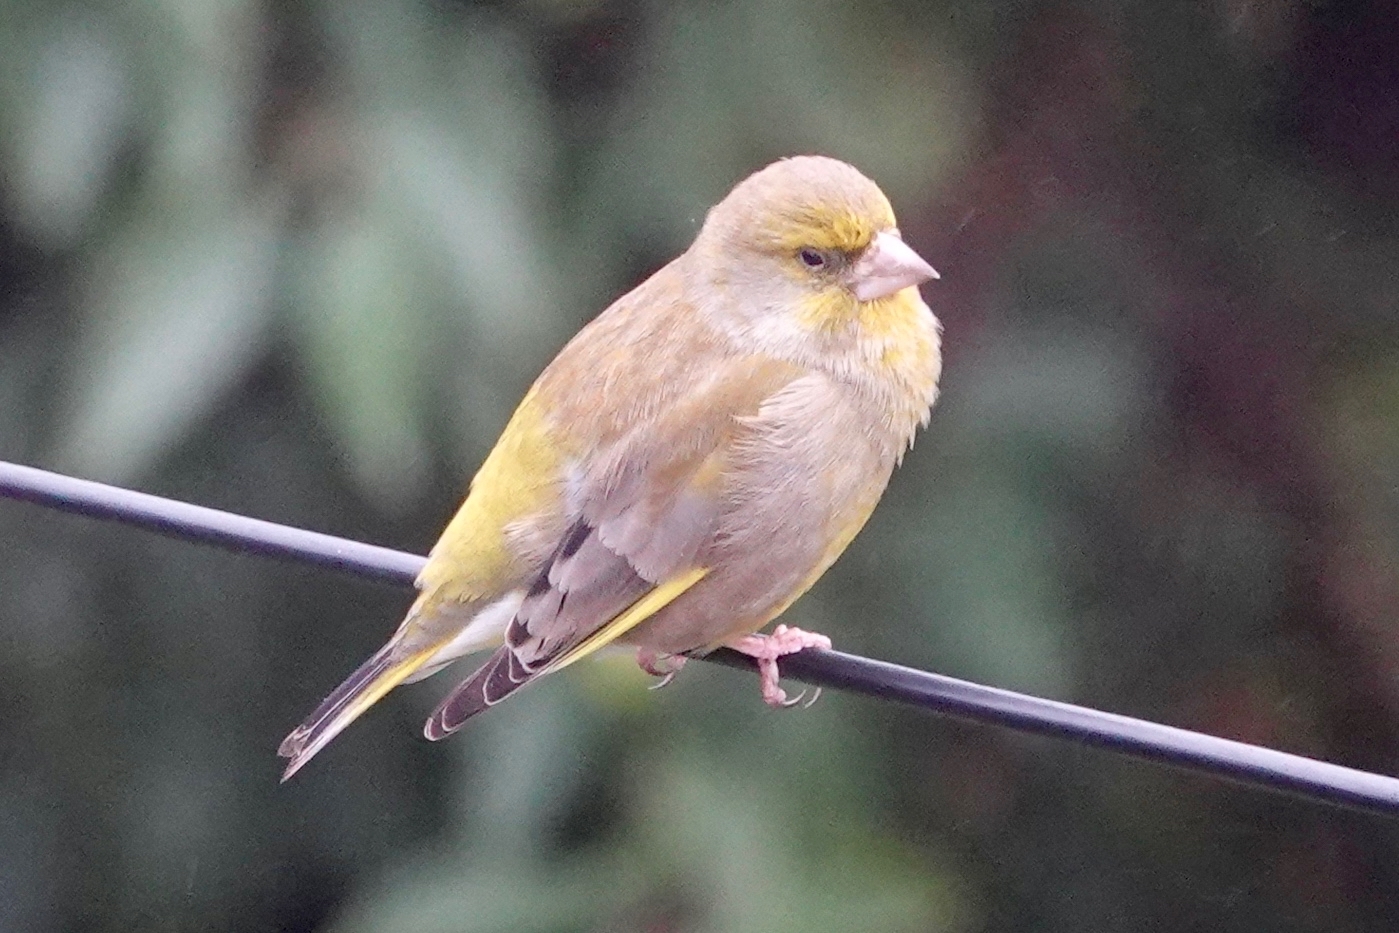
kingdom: Plantae
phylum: Tracheophyta
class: Liliopsida
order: Poales
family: Poaceae
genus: Chloris
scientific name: Chloris chloris
